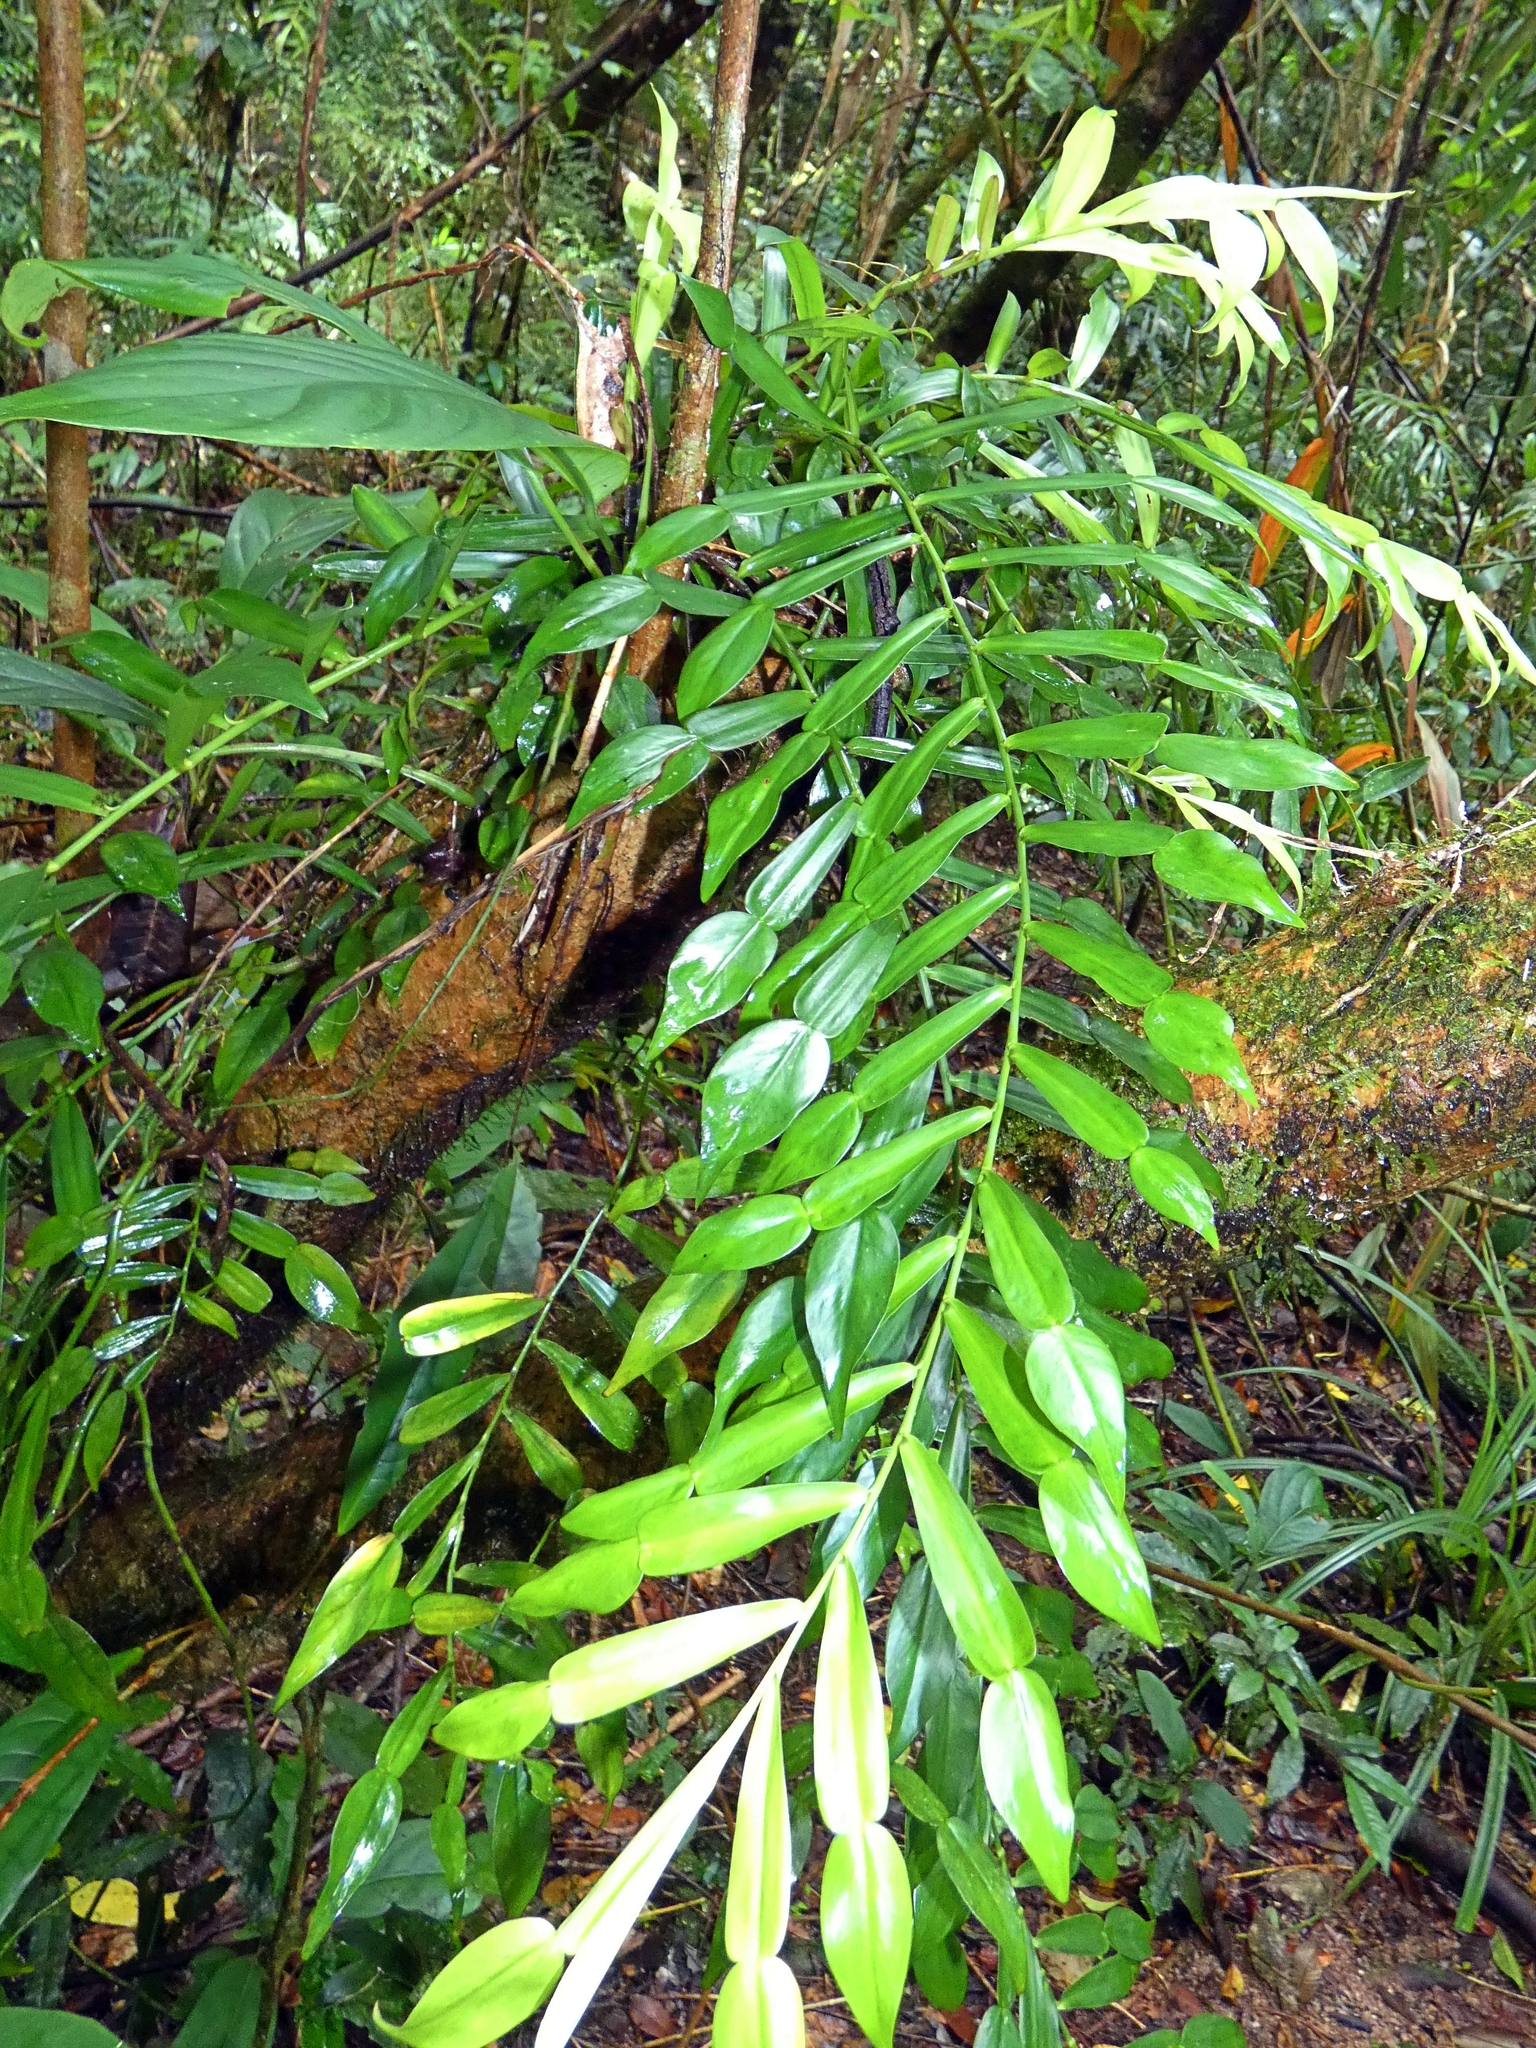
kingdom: Plantae
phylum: Tracheophyta
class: Liliopsida
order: Alismatales
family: Araceae
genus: Pothos
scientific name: Pothos longipes
